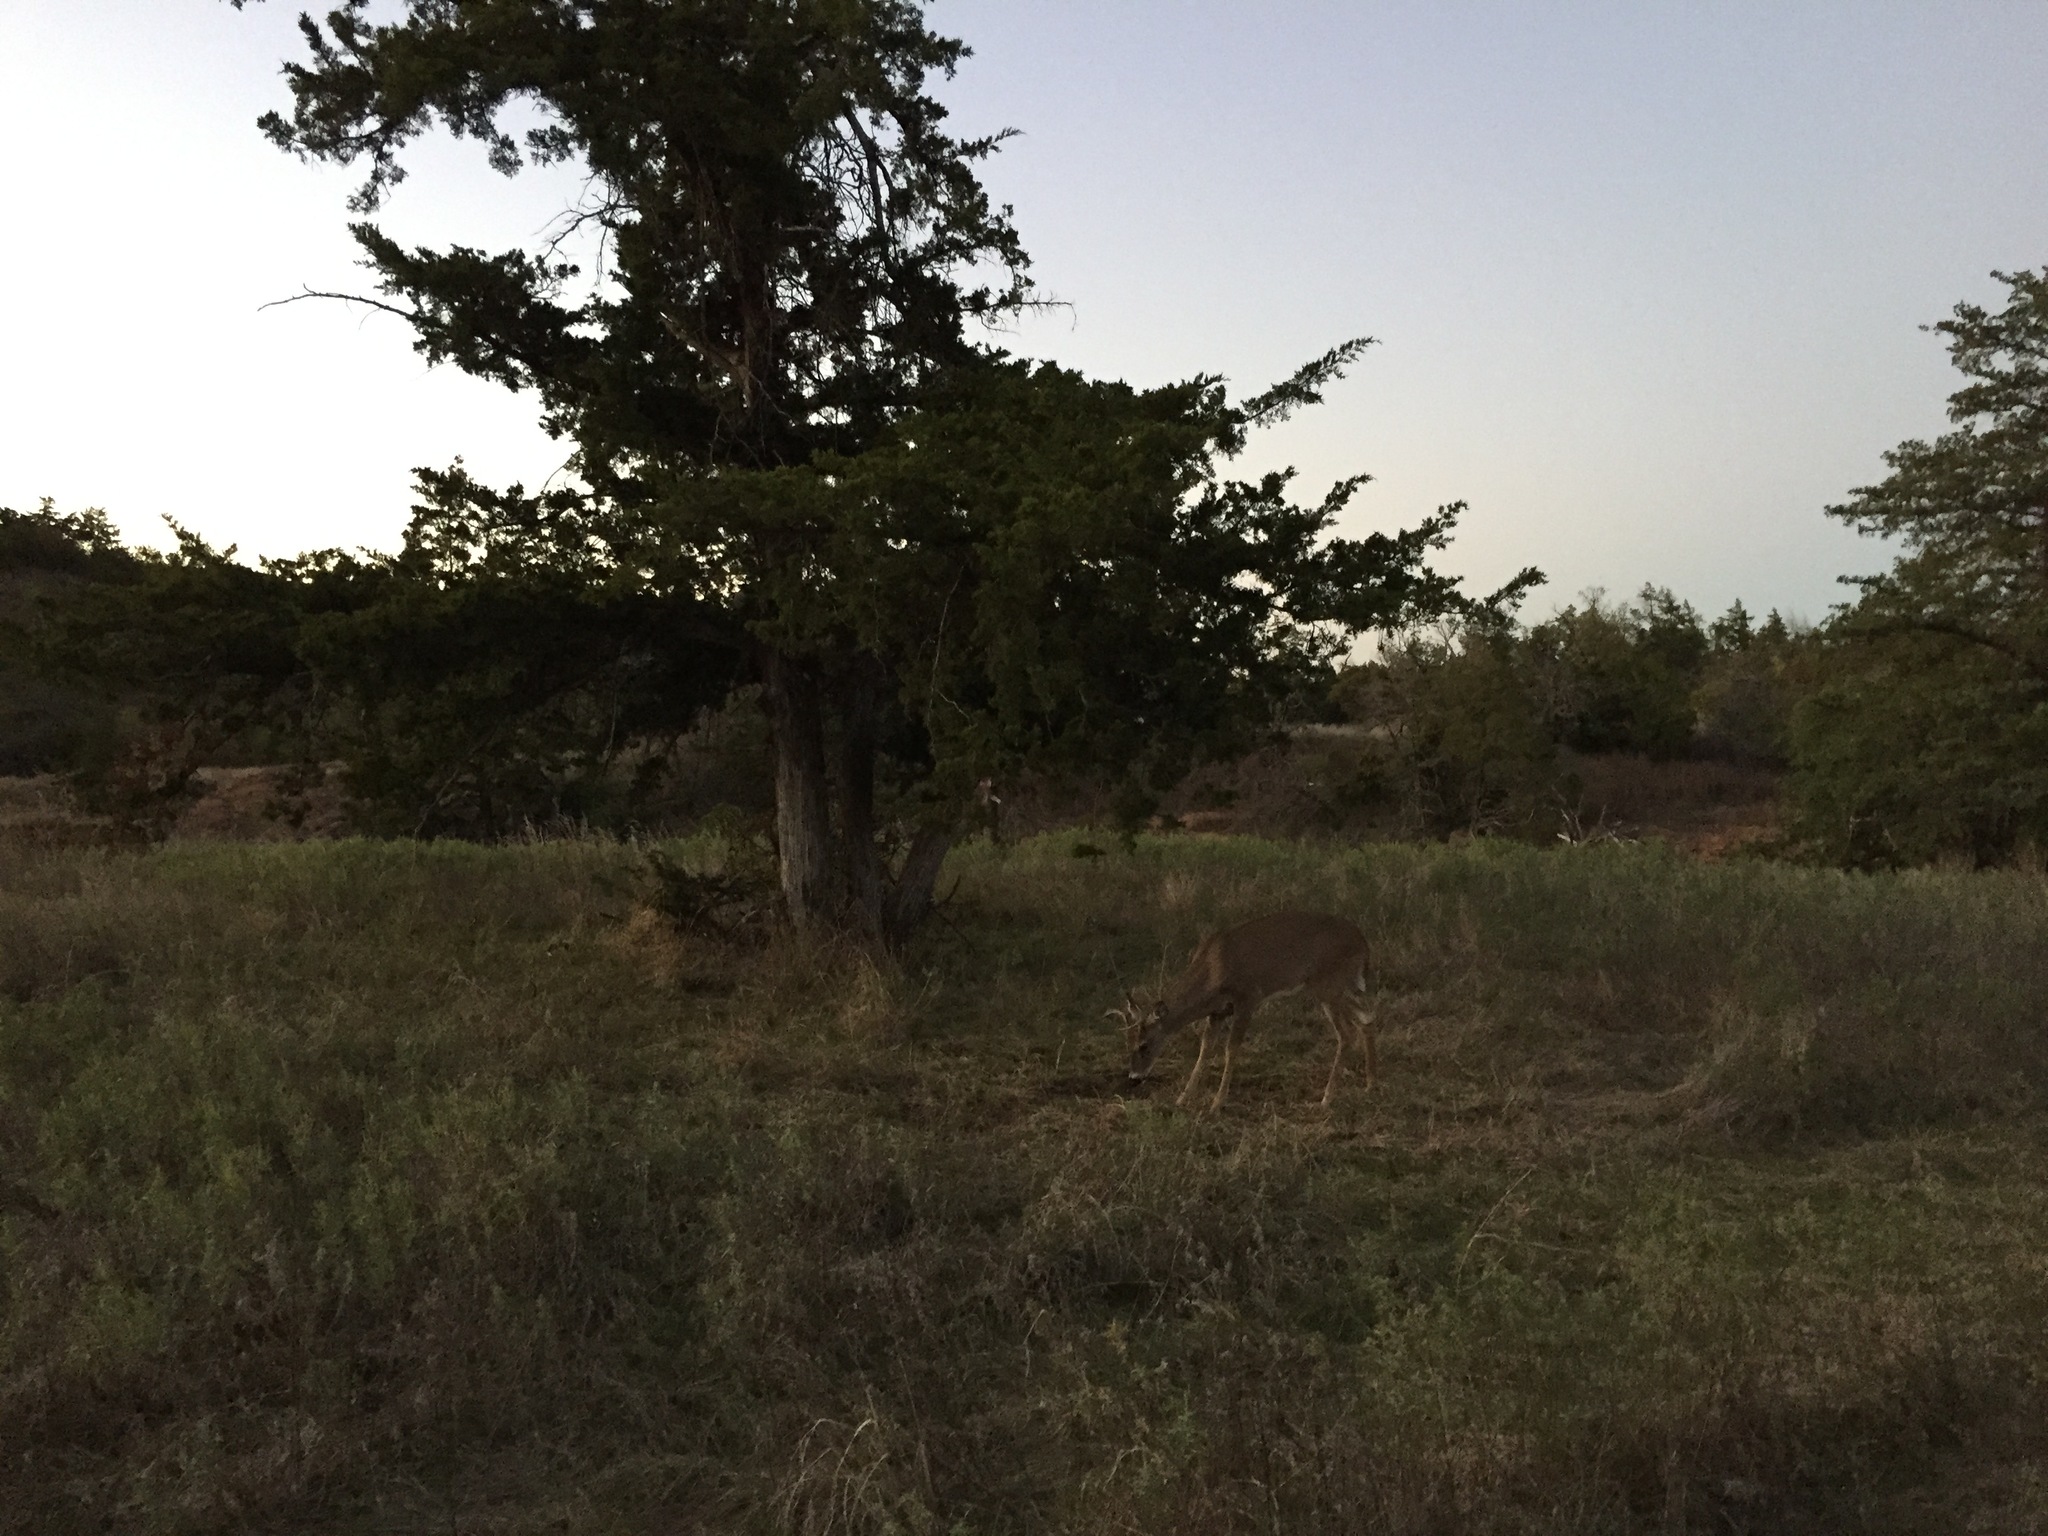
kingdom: Animalia
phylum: Chordata
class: Mammalia
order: Artiodactyla
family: Cervidae
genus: Odocoileus
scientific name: Odocoileus virginianus
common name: White-tailed deer
